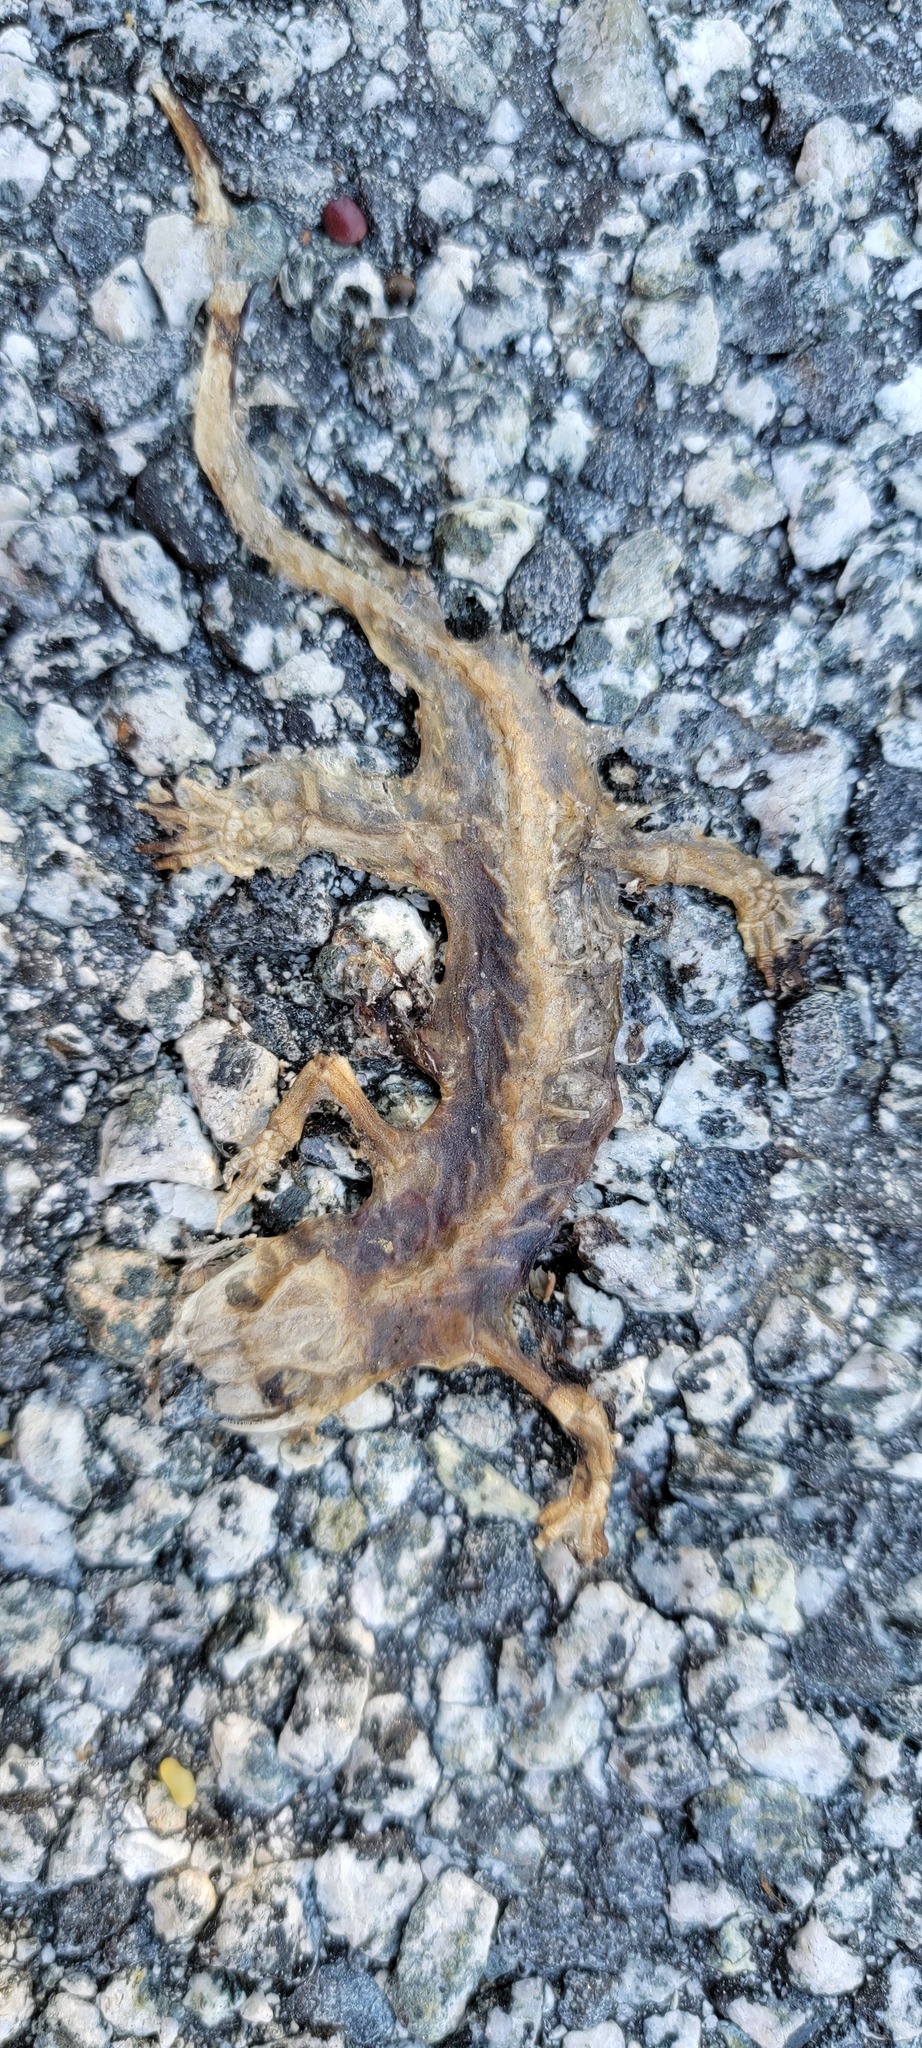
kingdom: Animalia
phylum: Chordata
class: Amphibia
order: Caudata
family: Salamandridae
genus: Taricha
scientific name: Taricha
